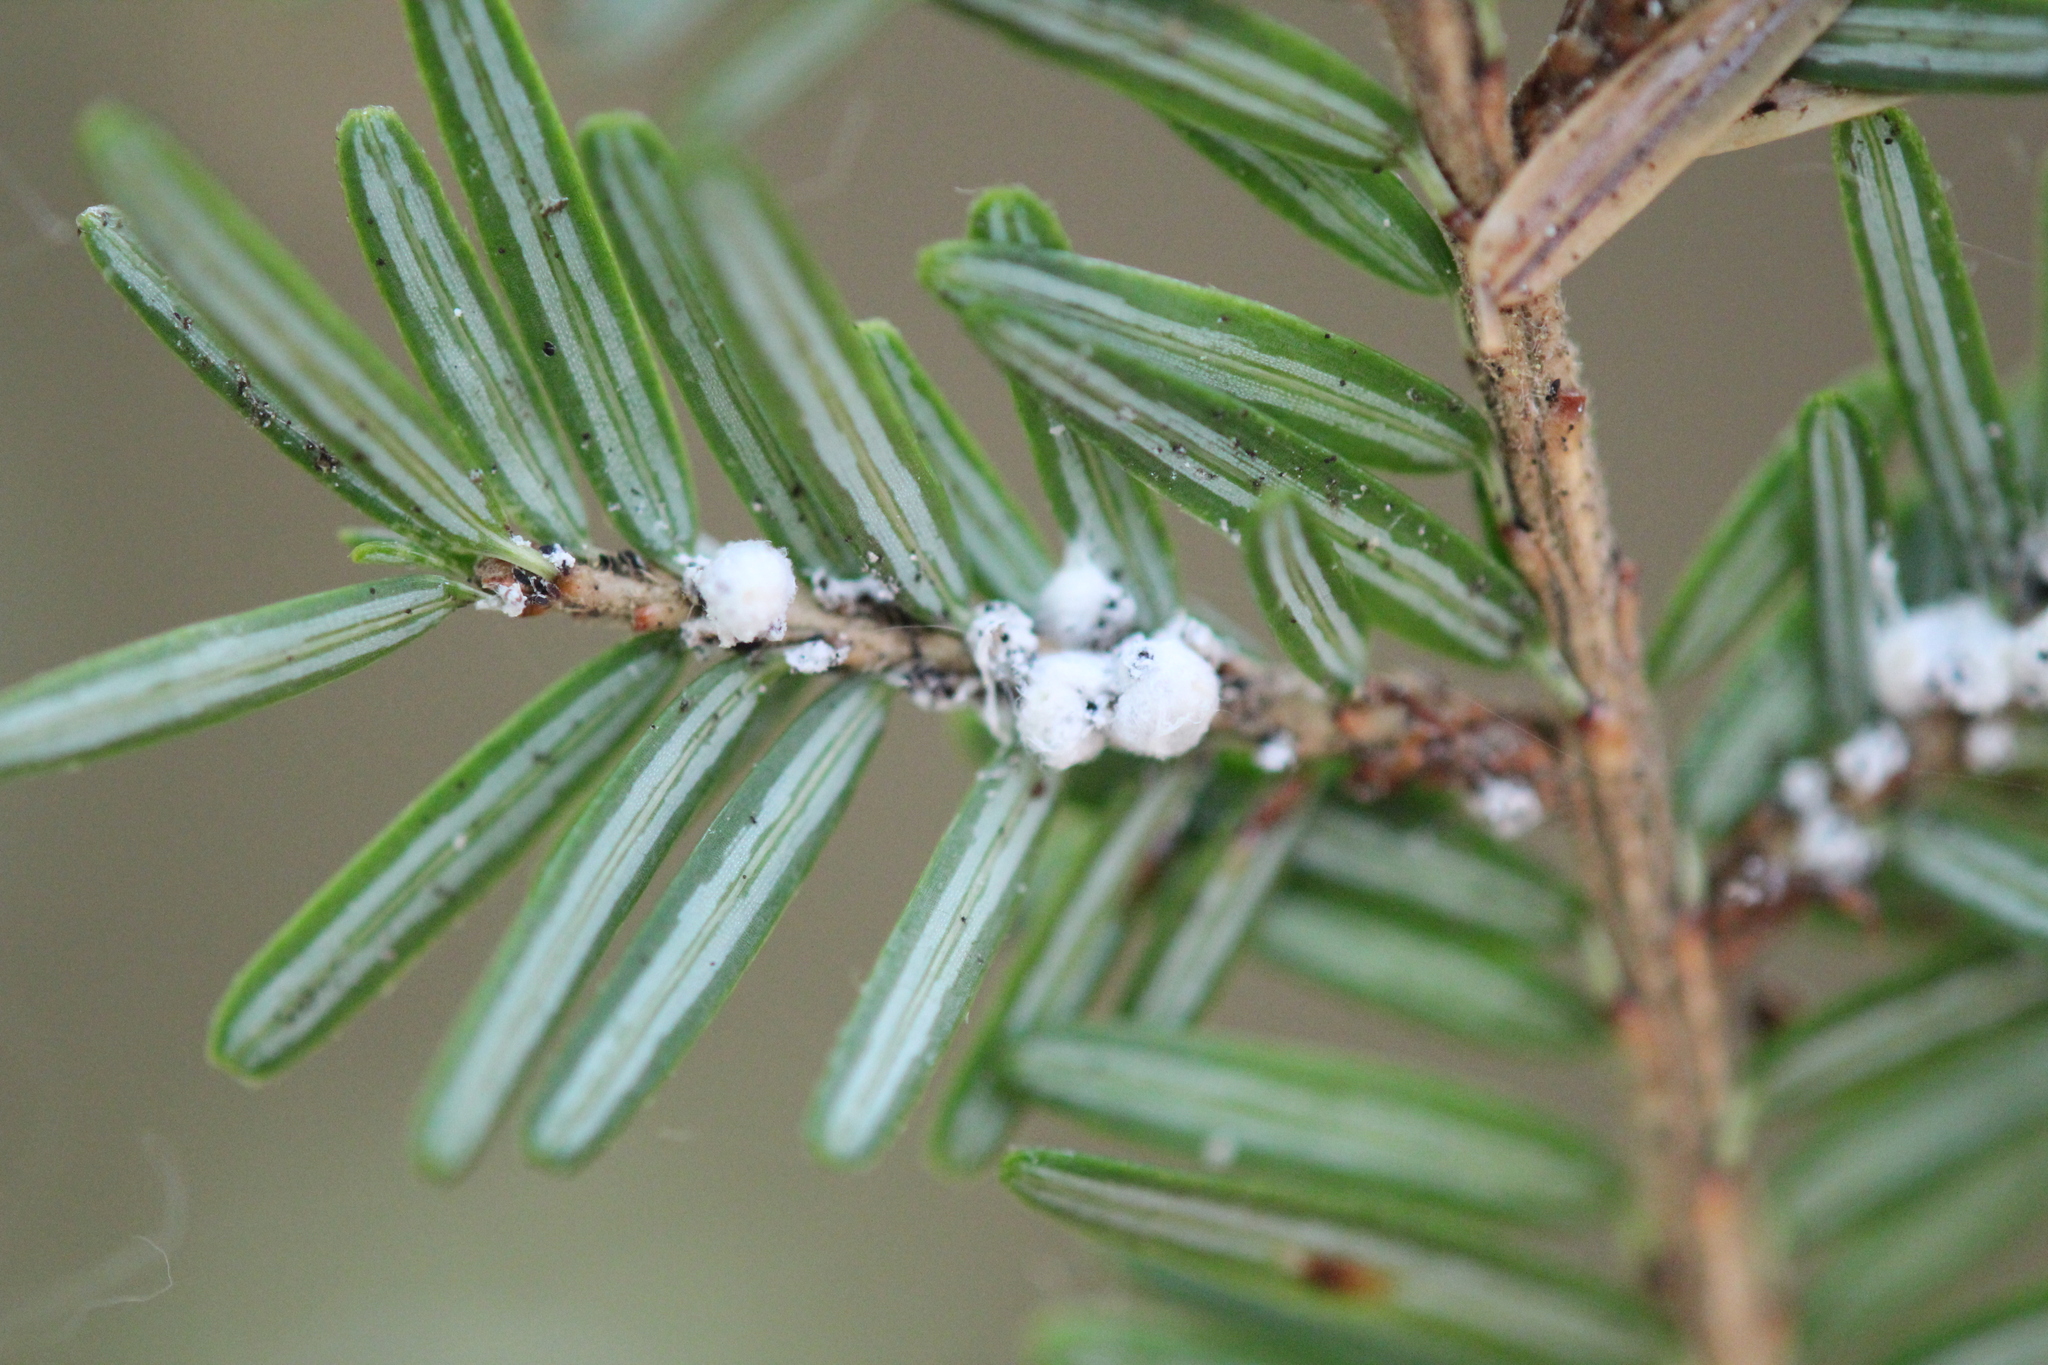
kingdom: Plantae
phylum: Tracheophyta
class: Pinopsida
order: Pinales
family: Pinaceae
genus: Tsuga
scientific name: Tsuga canadensis
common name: Eastern hemlock
